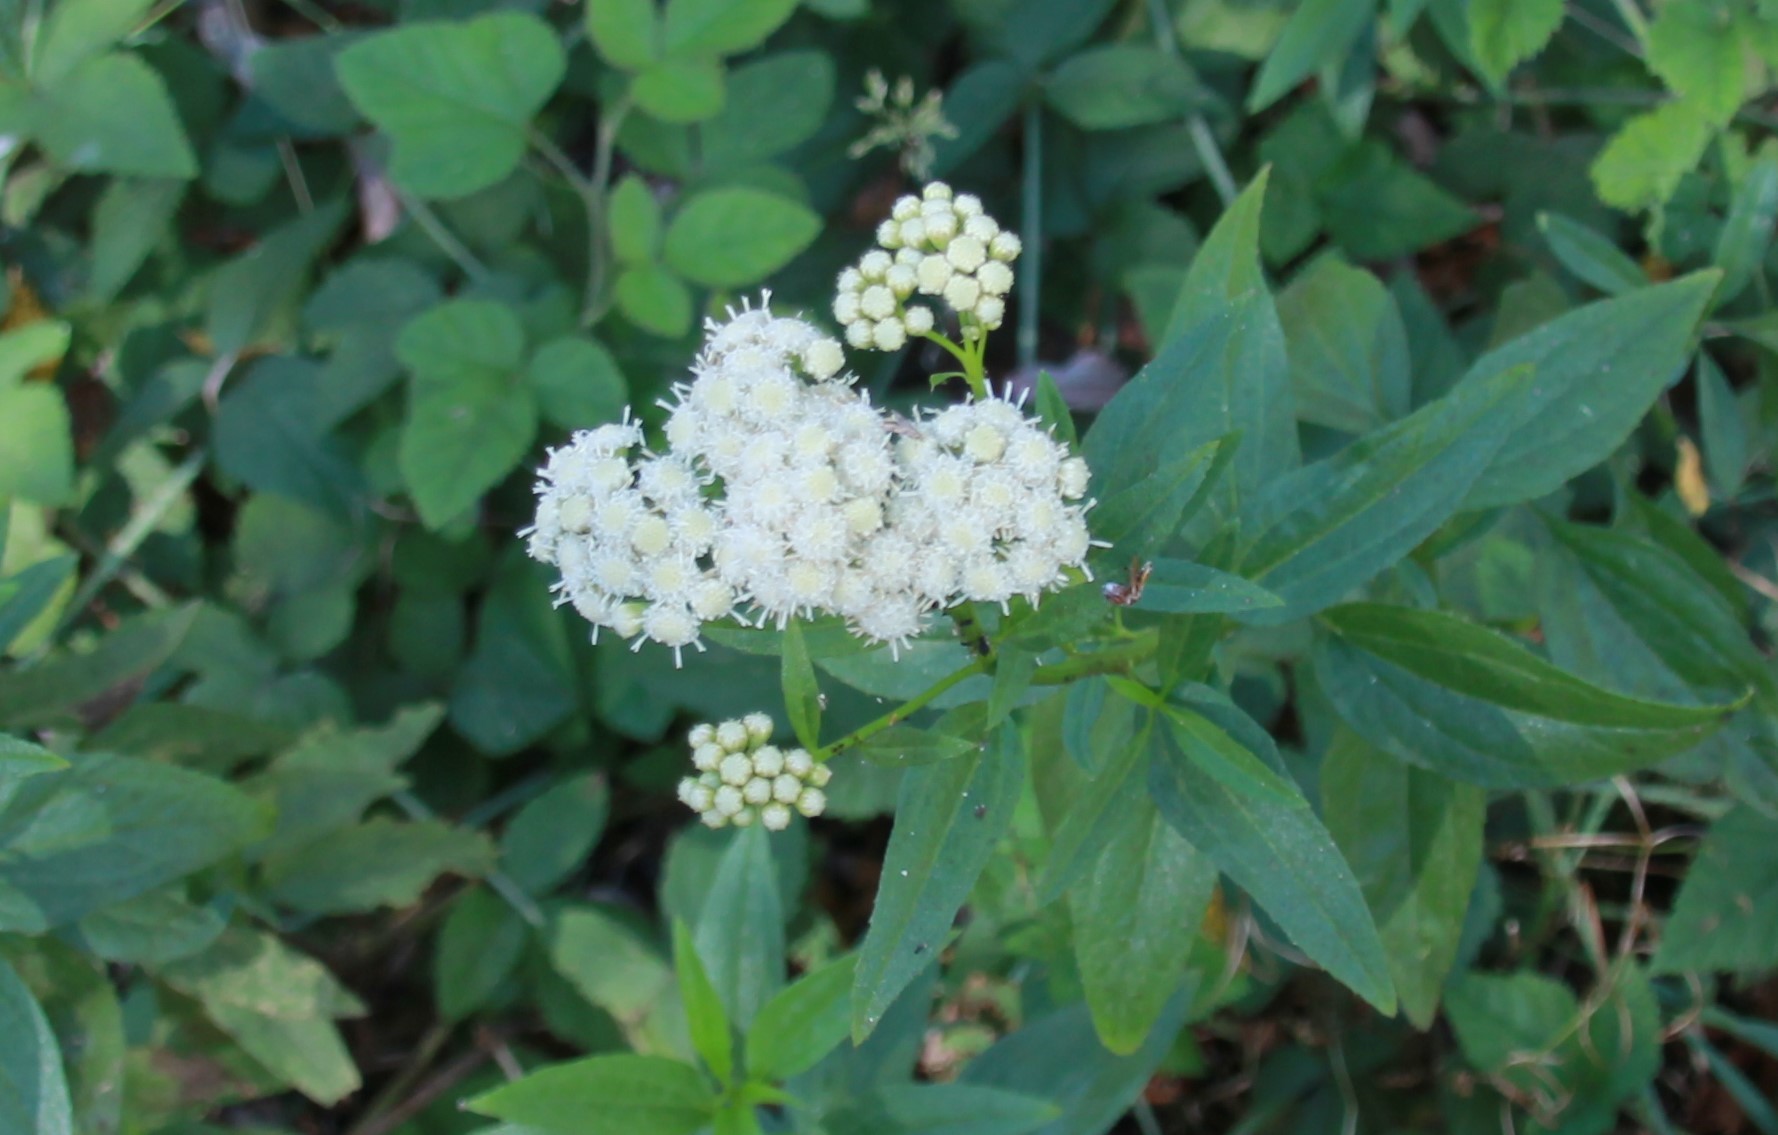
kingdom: Plantae
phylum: Tracheophyta
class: Magnoliopsida
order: Asterales
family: Asteraceae
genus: Baccharis
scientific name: Baccharis glutinosa
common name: Saltmarsh baccharis
